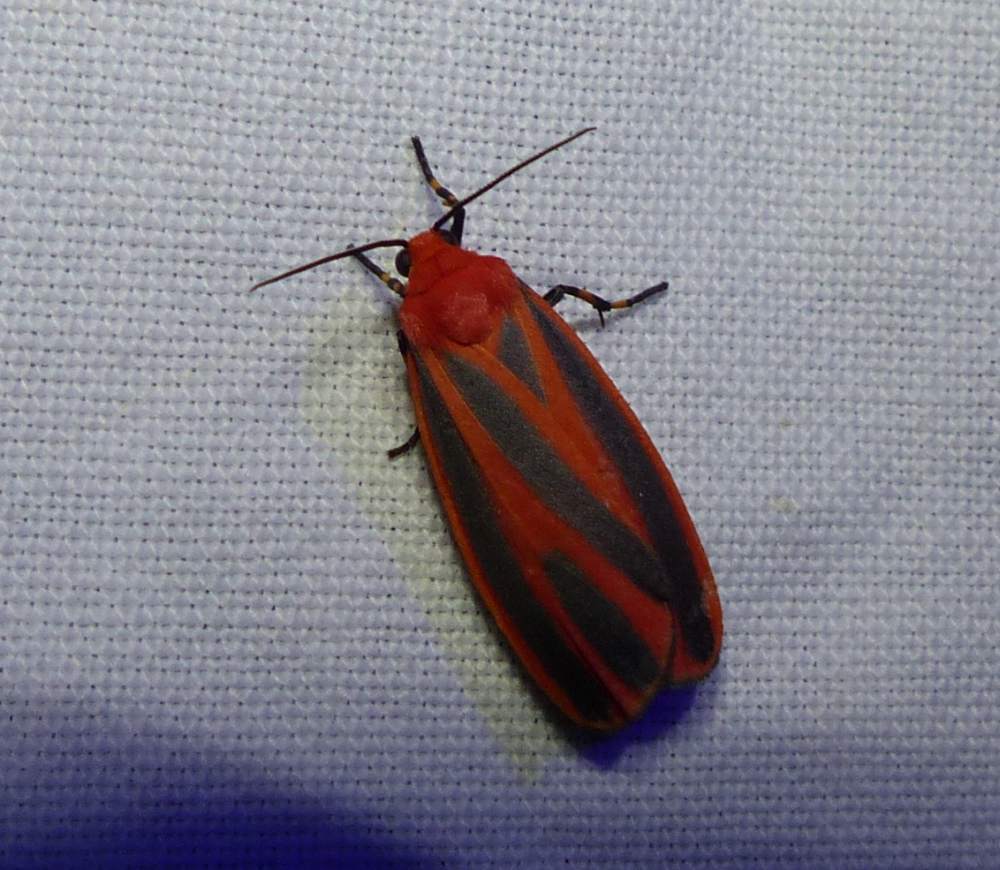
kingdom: Animalia
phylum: Arthropoda
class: Insecta
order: Lepidoptera
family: Erebidae
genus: Hypoprepia
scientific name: Hypoprepia miniata
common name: Scarlet-winged lichen moth
